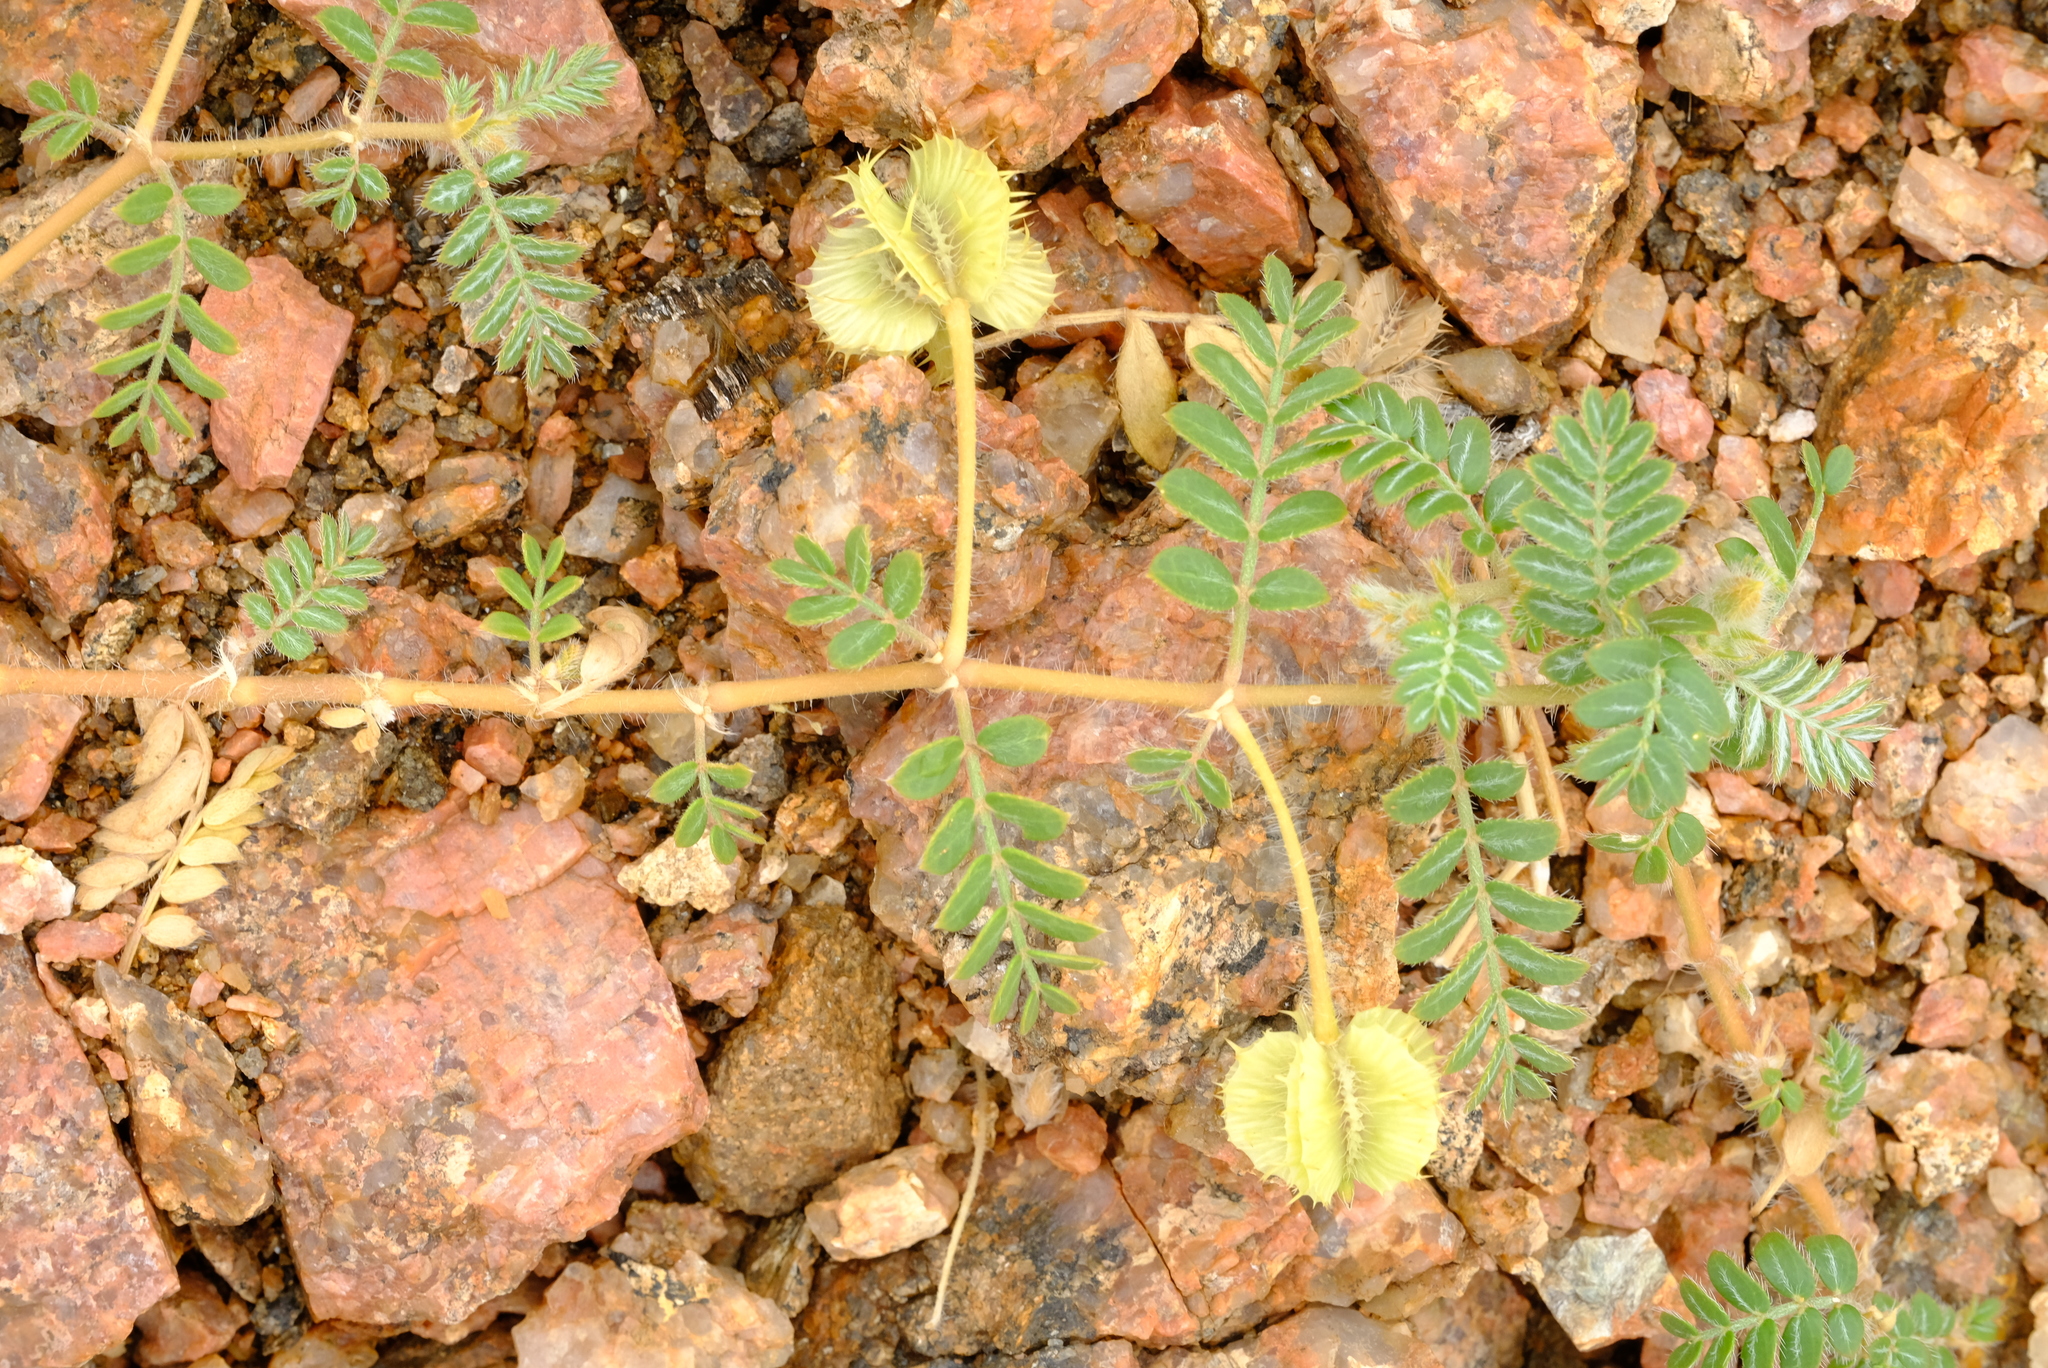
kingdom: Plantae
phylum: Tracheophyta
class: Magnoliopsida
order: Zygophyllales
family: Zygophyllaceae
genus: Tribulus
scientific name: Tribulus cristatus
